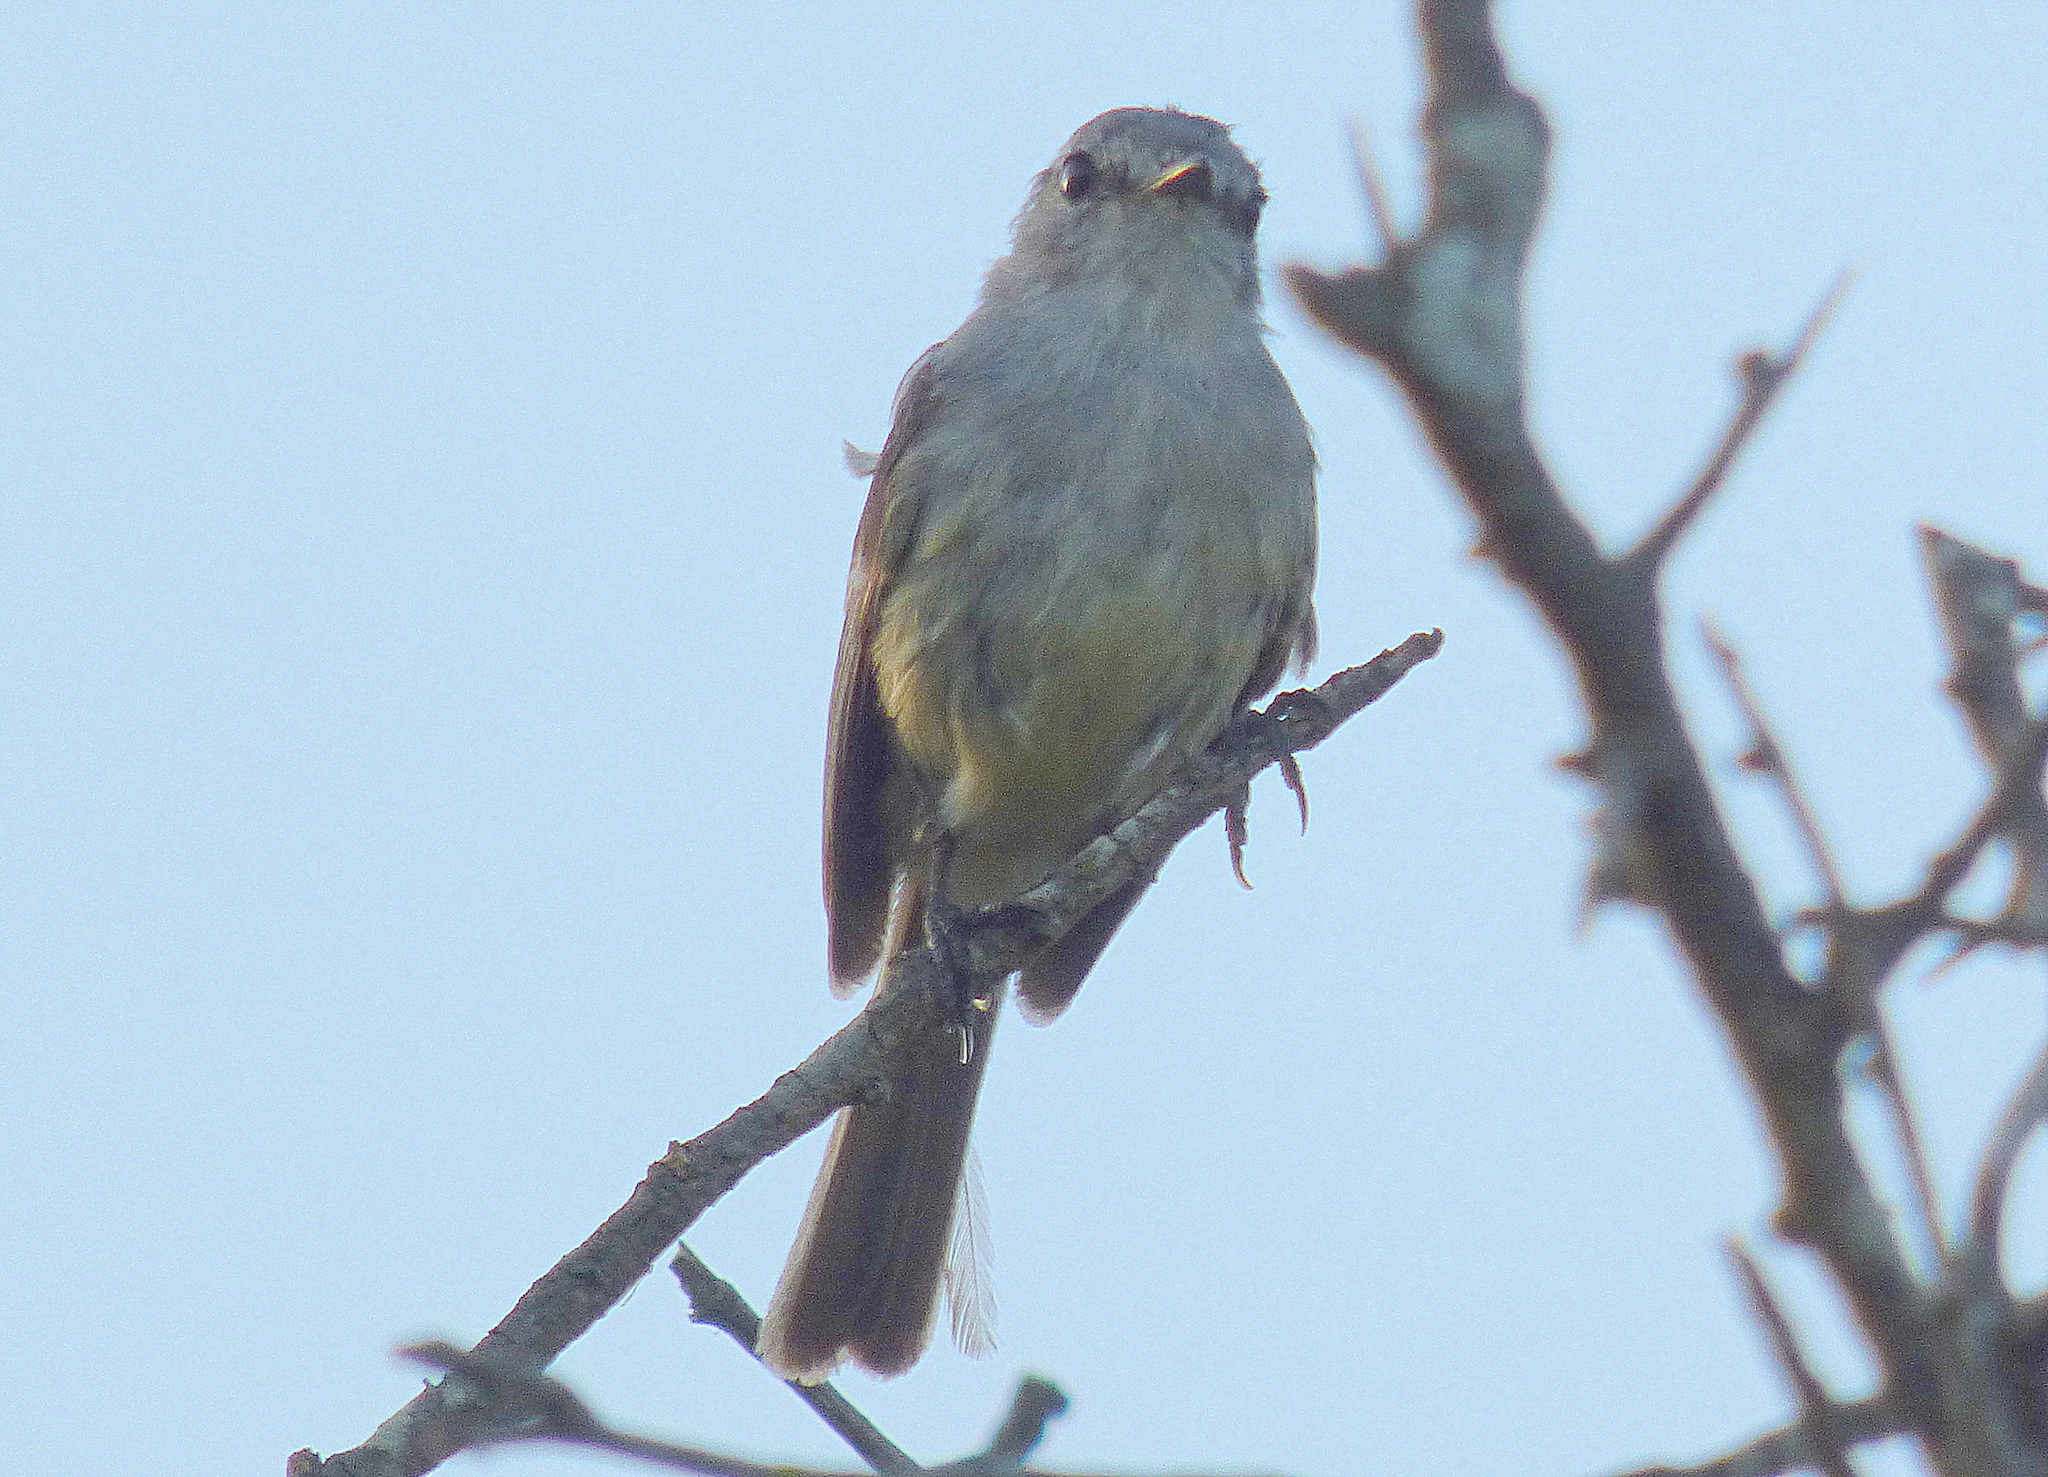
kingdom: Animalia
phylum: Chordata
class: Aves
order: Passeriformes
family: Tyrannidae
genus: Serpophaga
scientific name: Serpophaga subcristata
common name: White-crested tyrannulet
